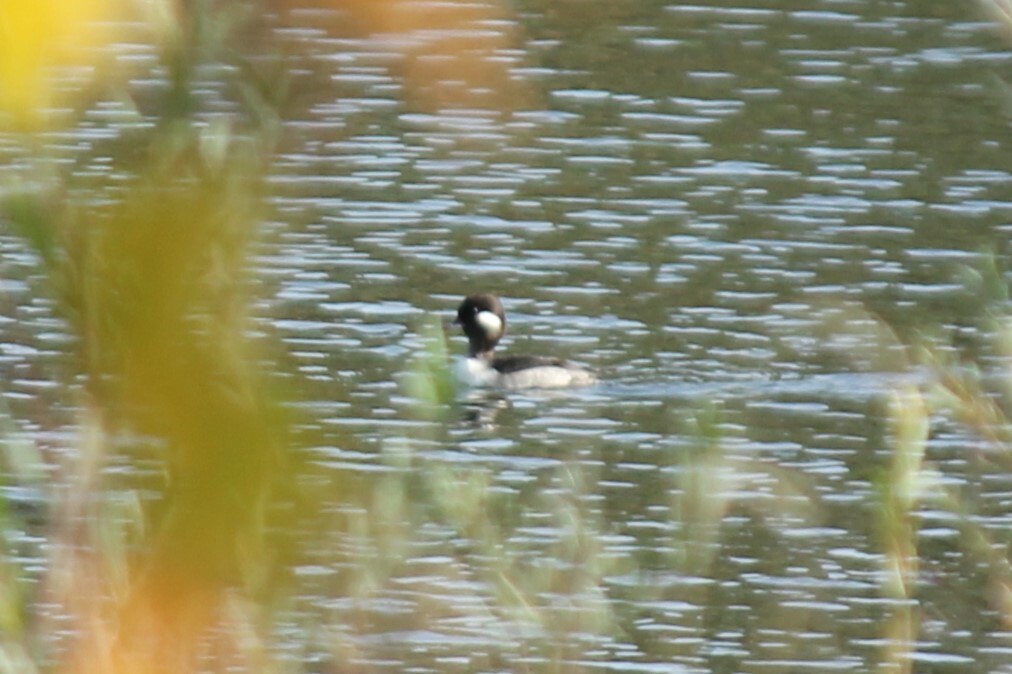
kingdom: Animalia
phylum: Chordata
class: Aves
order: Anseriformes
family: Anatidae
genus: Bucephala
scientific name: Bucephala albeola
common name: Bufflehead
